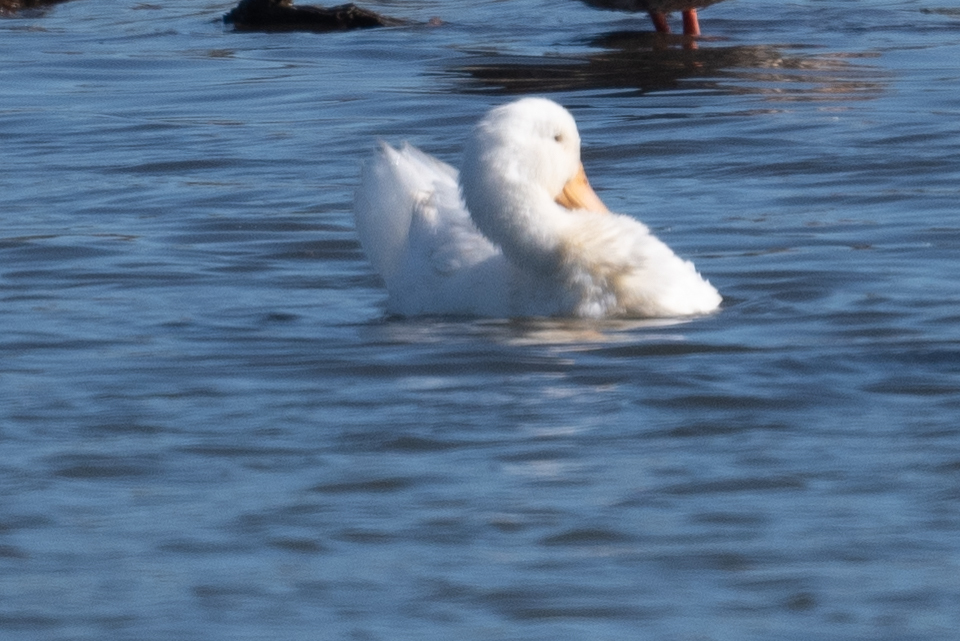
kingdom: Animalia
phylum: Chordata
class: Aves
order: Anseriformes
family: Anatidae
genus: Anas
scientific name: Anas platyrhynchos
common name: Mallard
